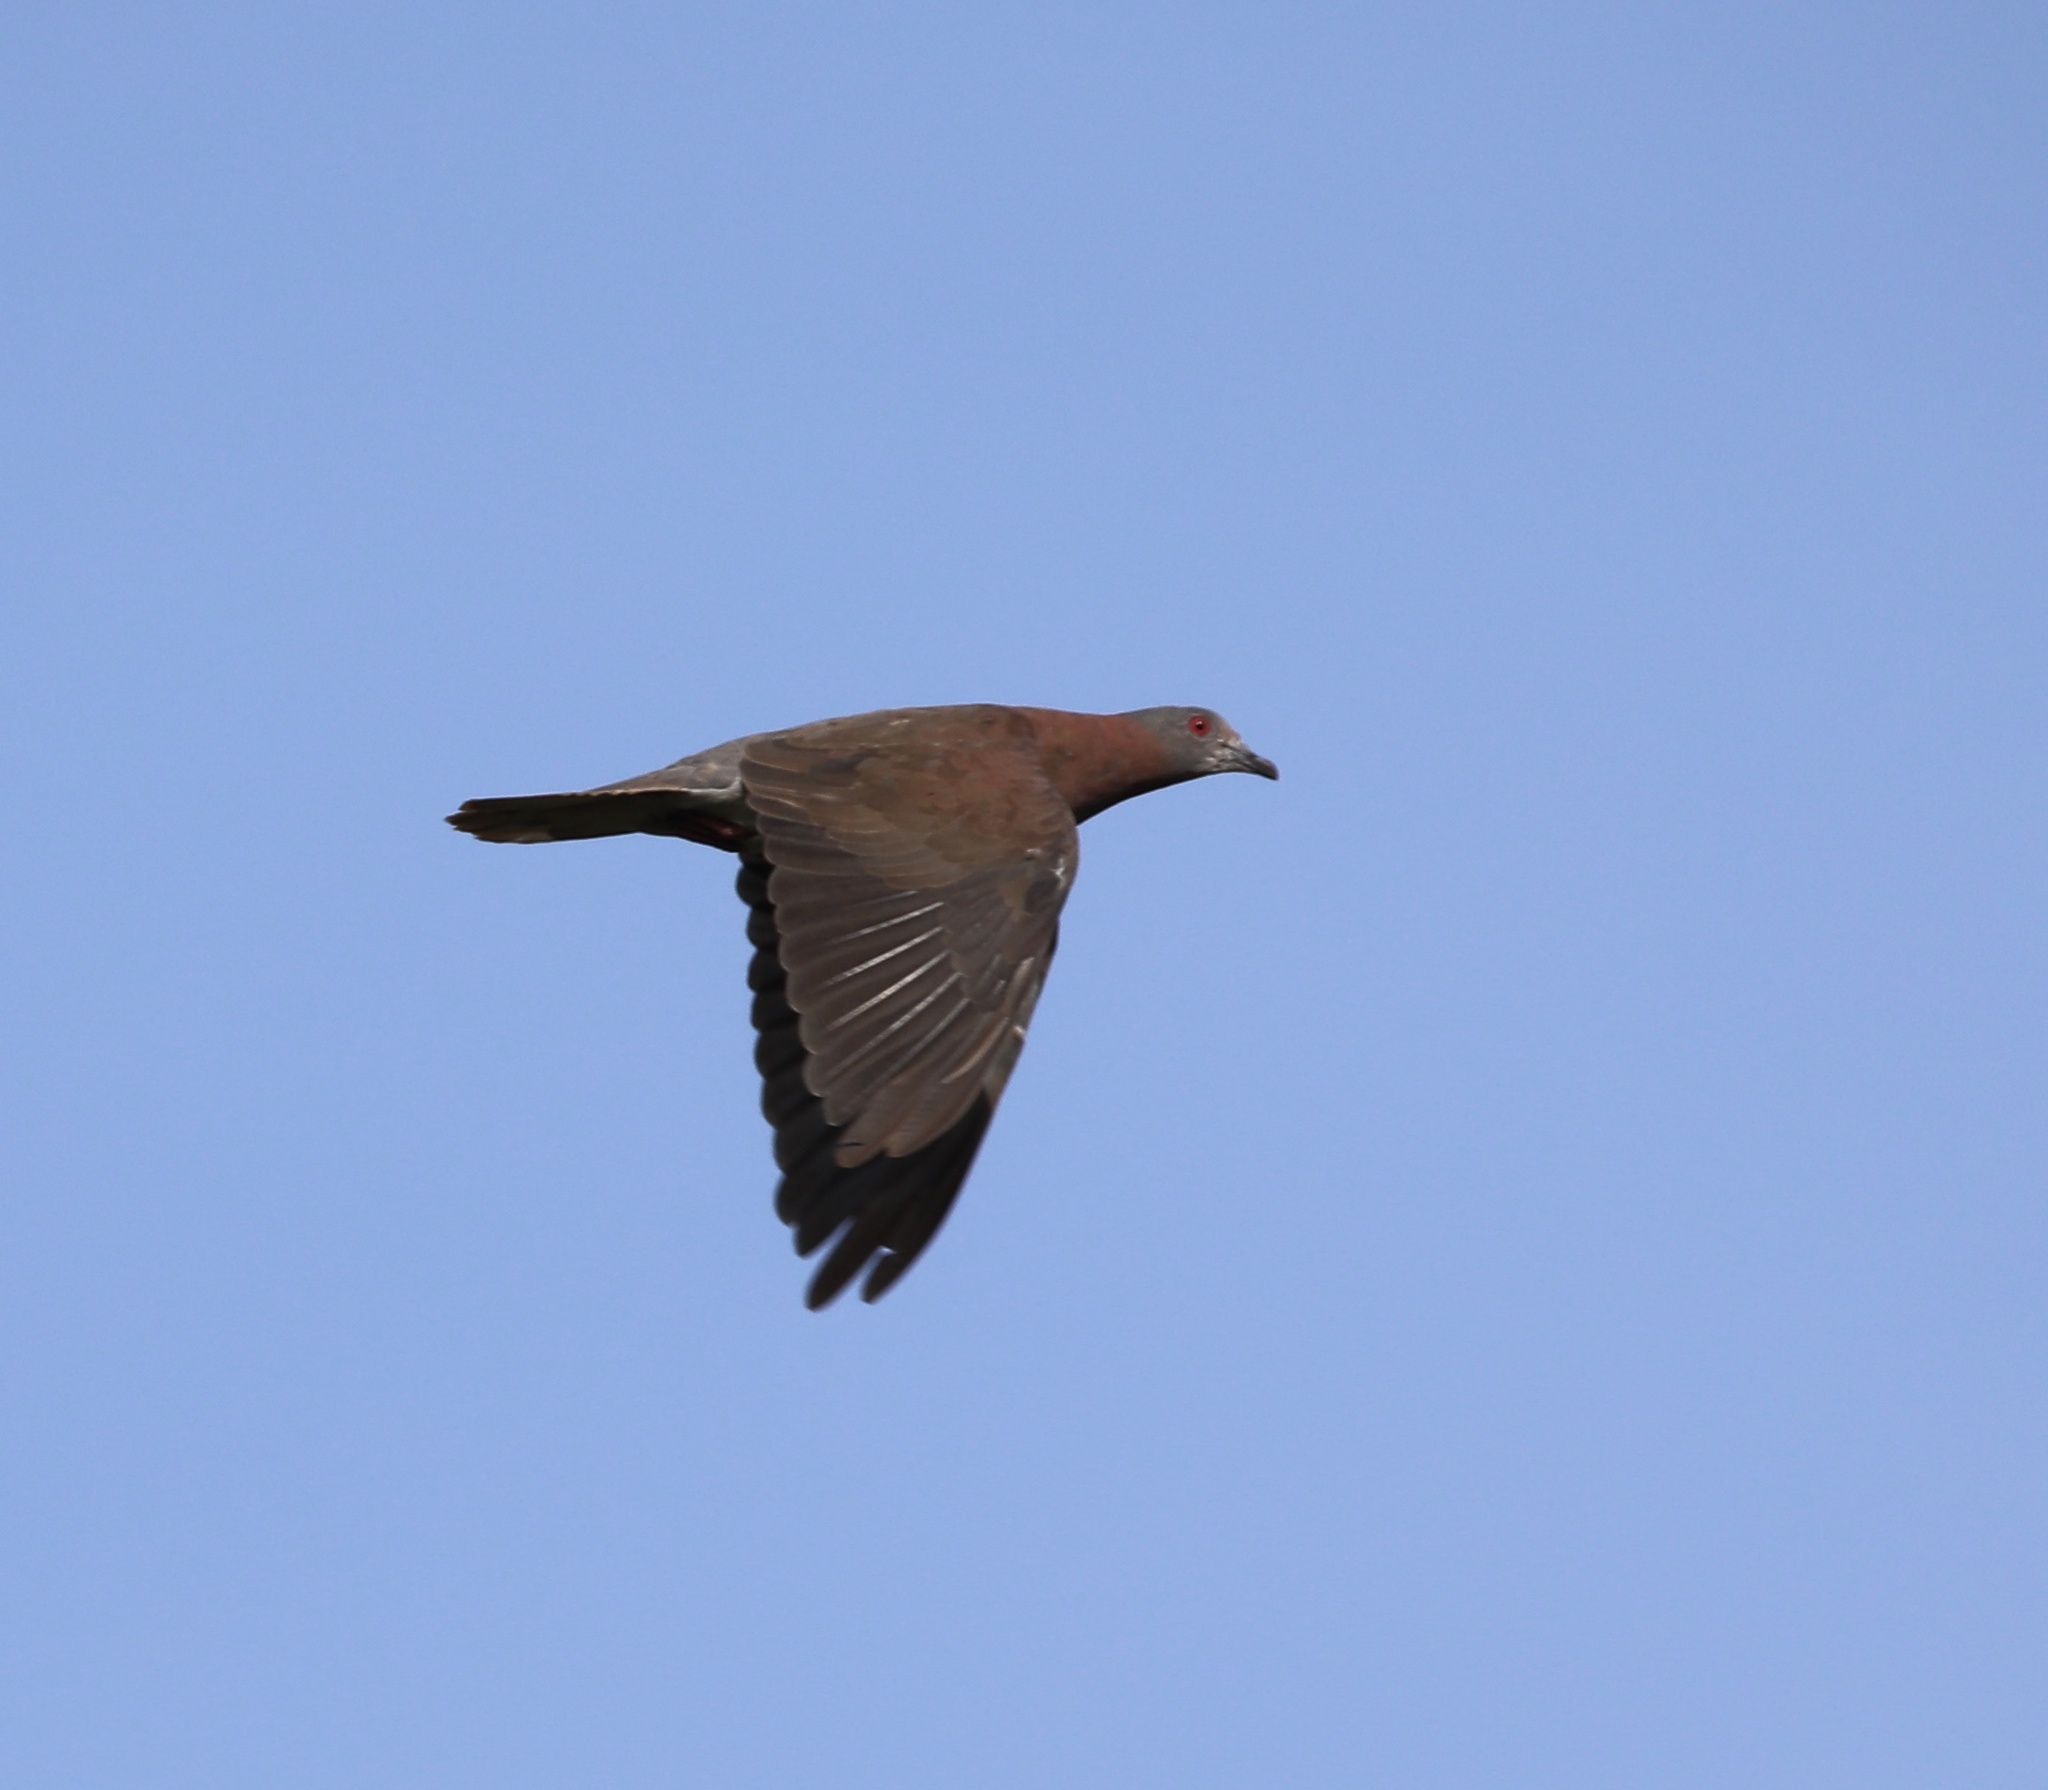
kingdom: Animalia
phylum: Chordata
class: Aves
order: Columbiformes
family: Columbidae
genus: Patagioenas
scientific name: Patagioenas cayennensis
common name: Pale-vented pigeon
